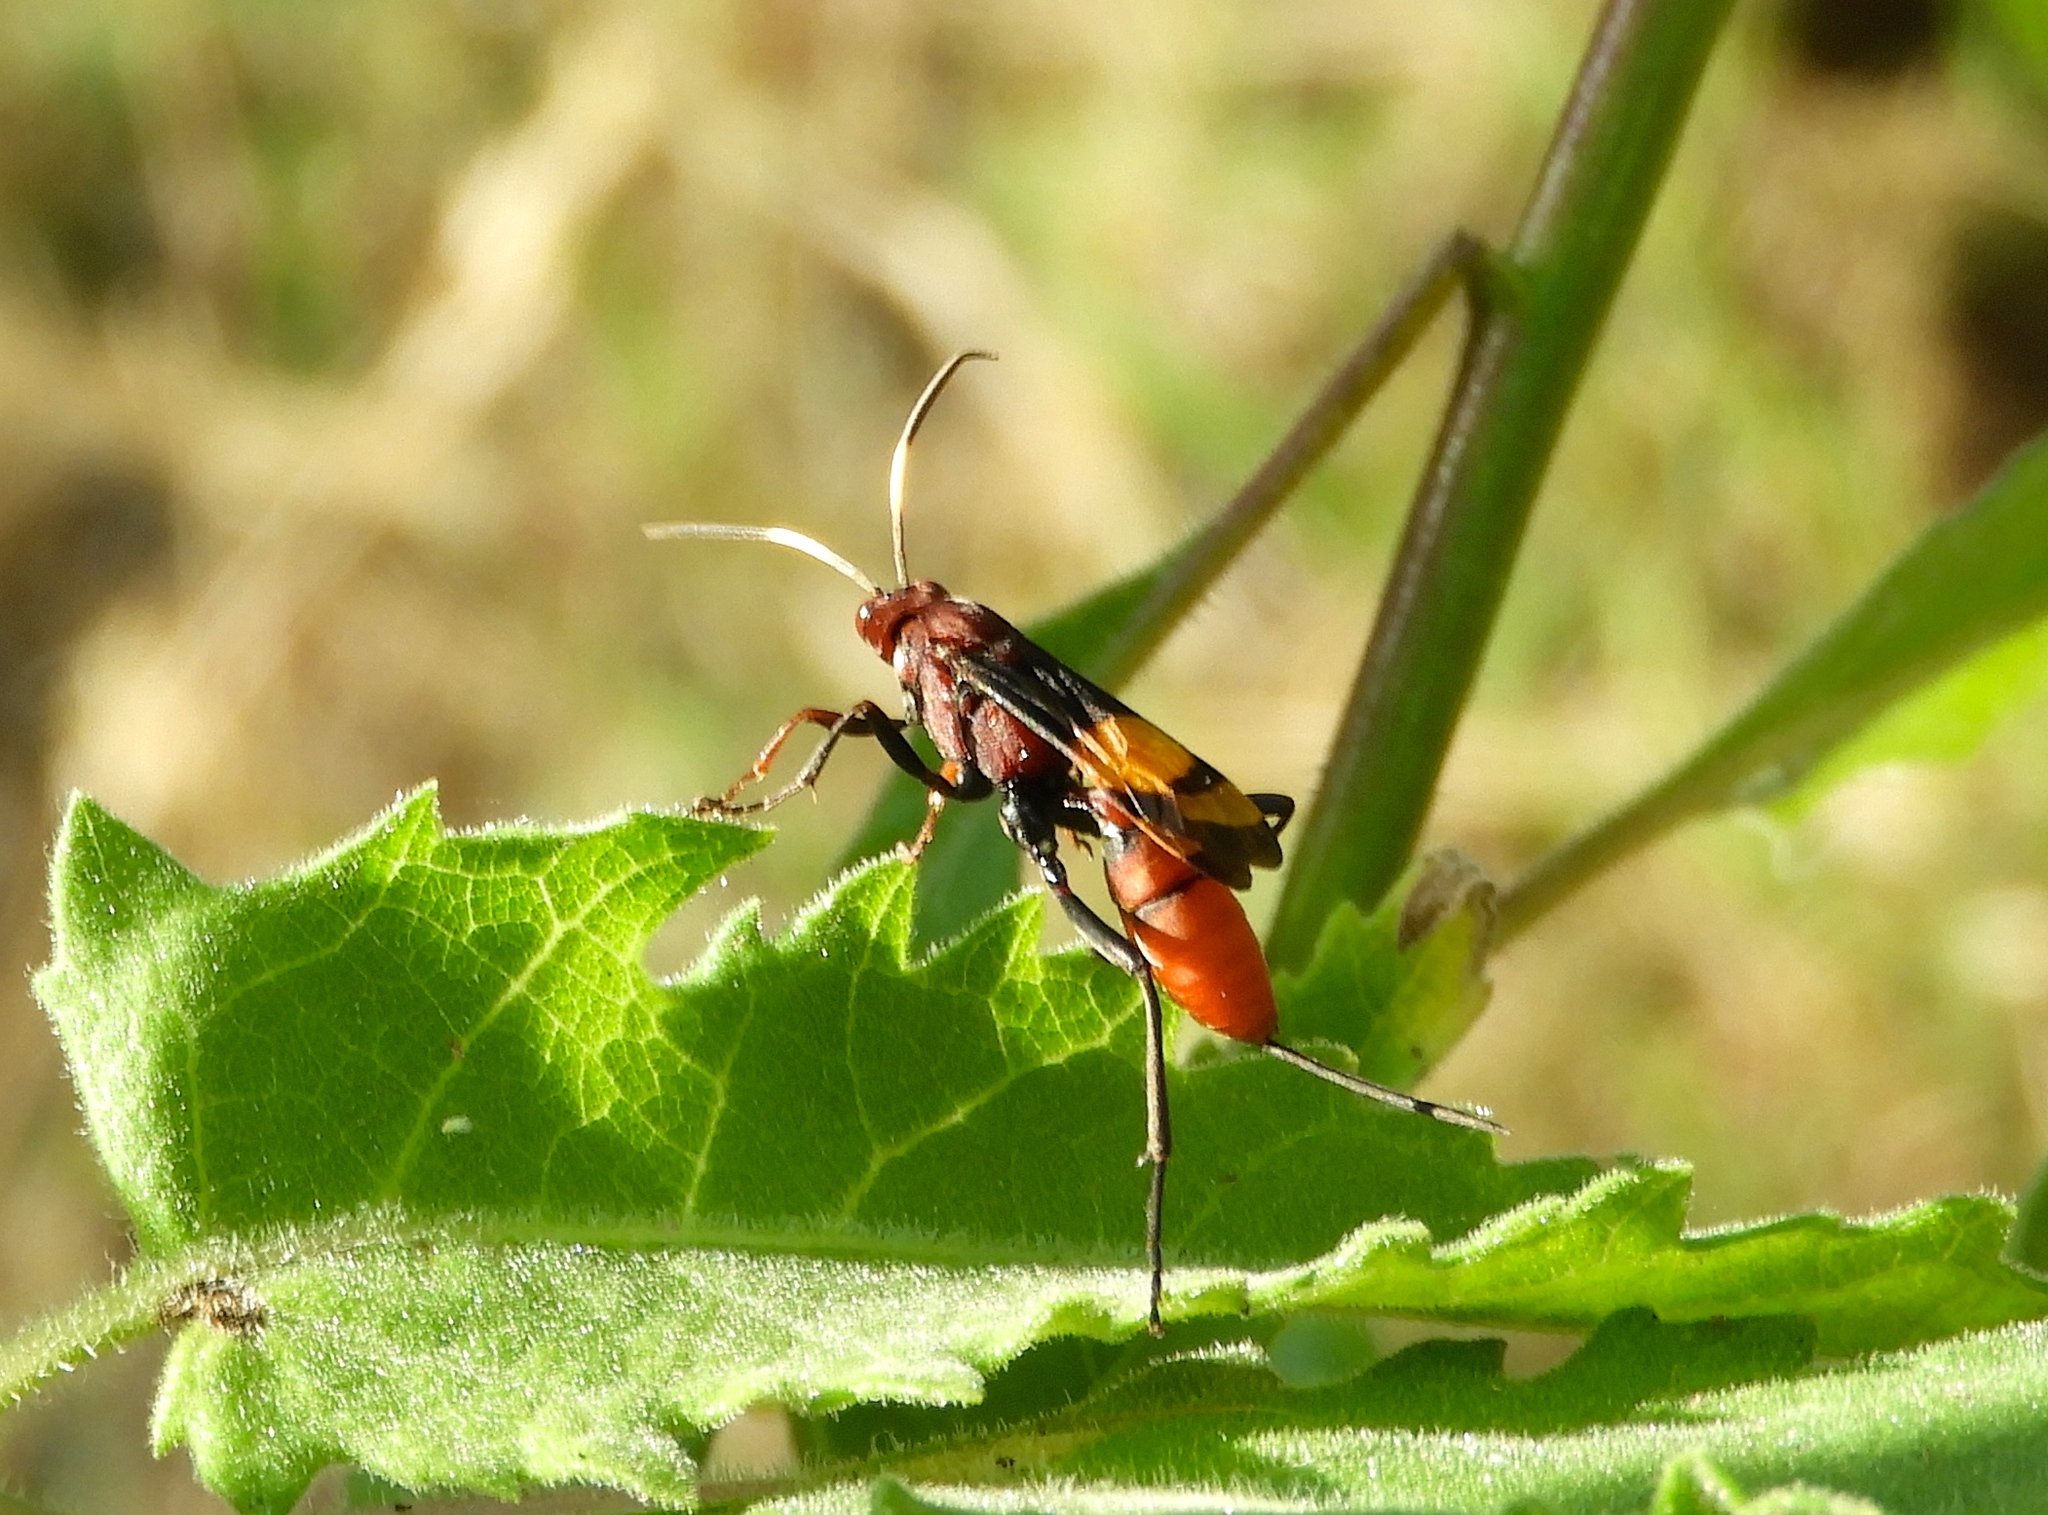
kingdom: Animalia
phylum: Arthropoda
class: Insecta
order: Hymenoptera
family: Ichneumonidae
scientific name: Ichneumonidae
